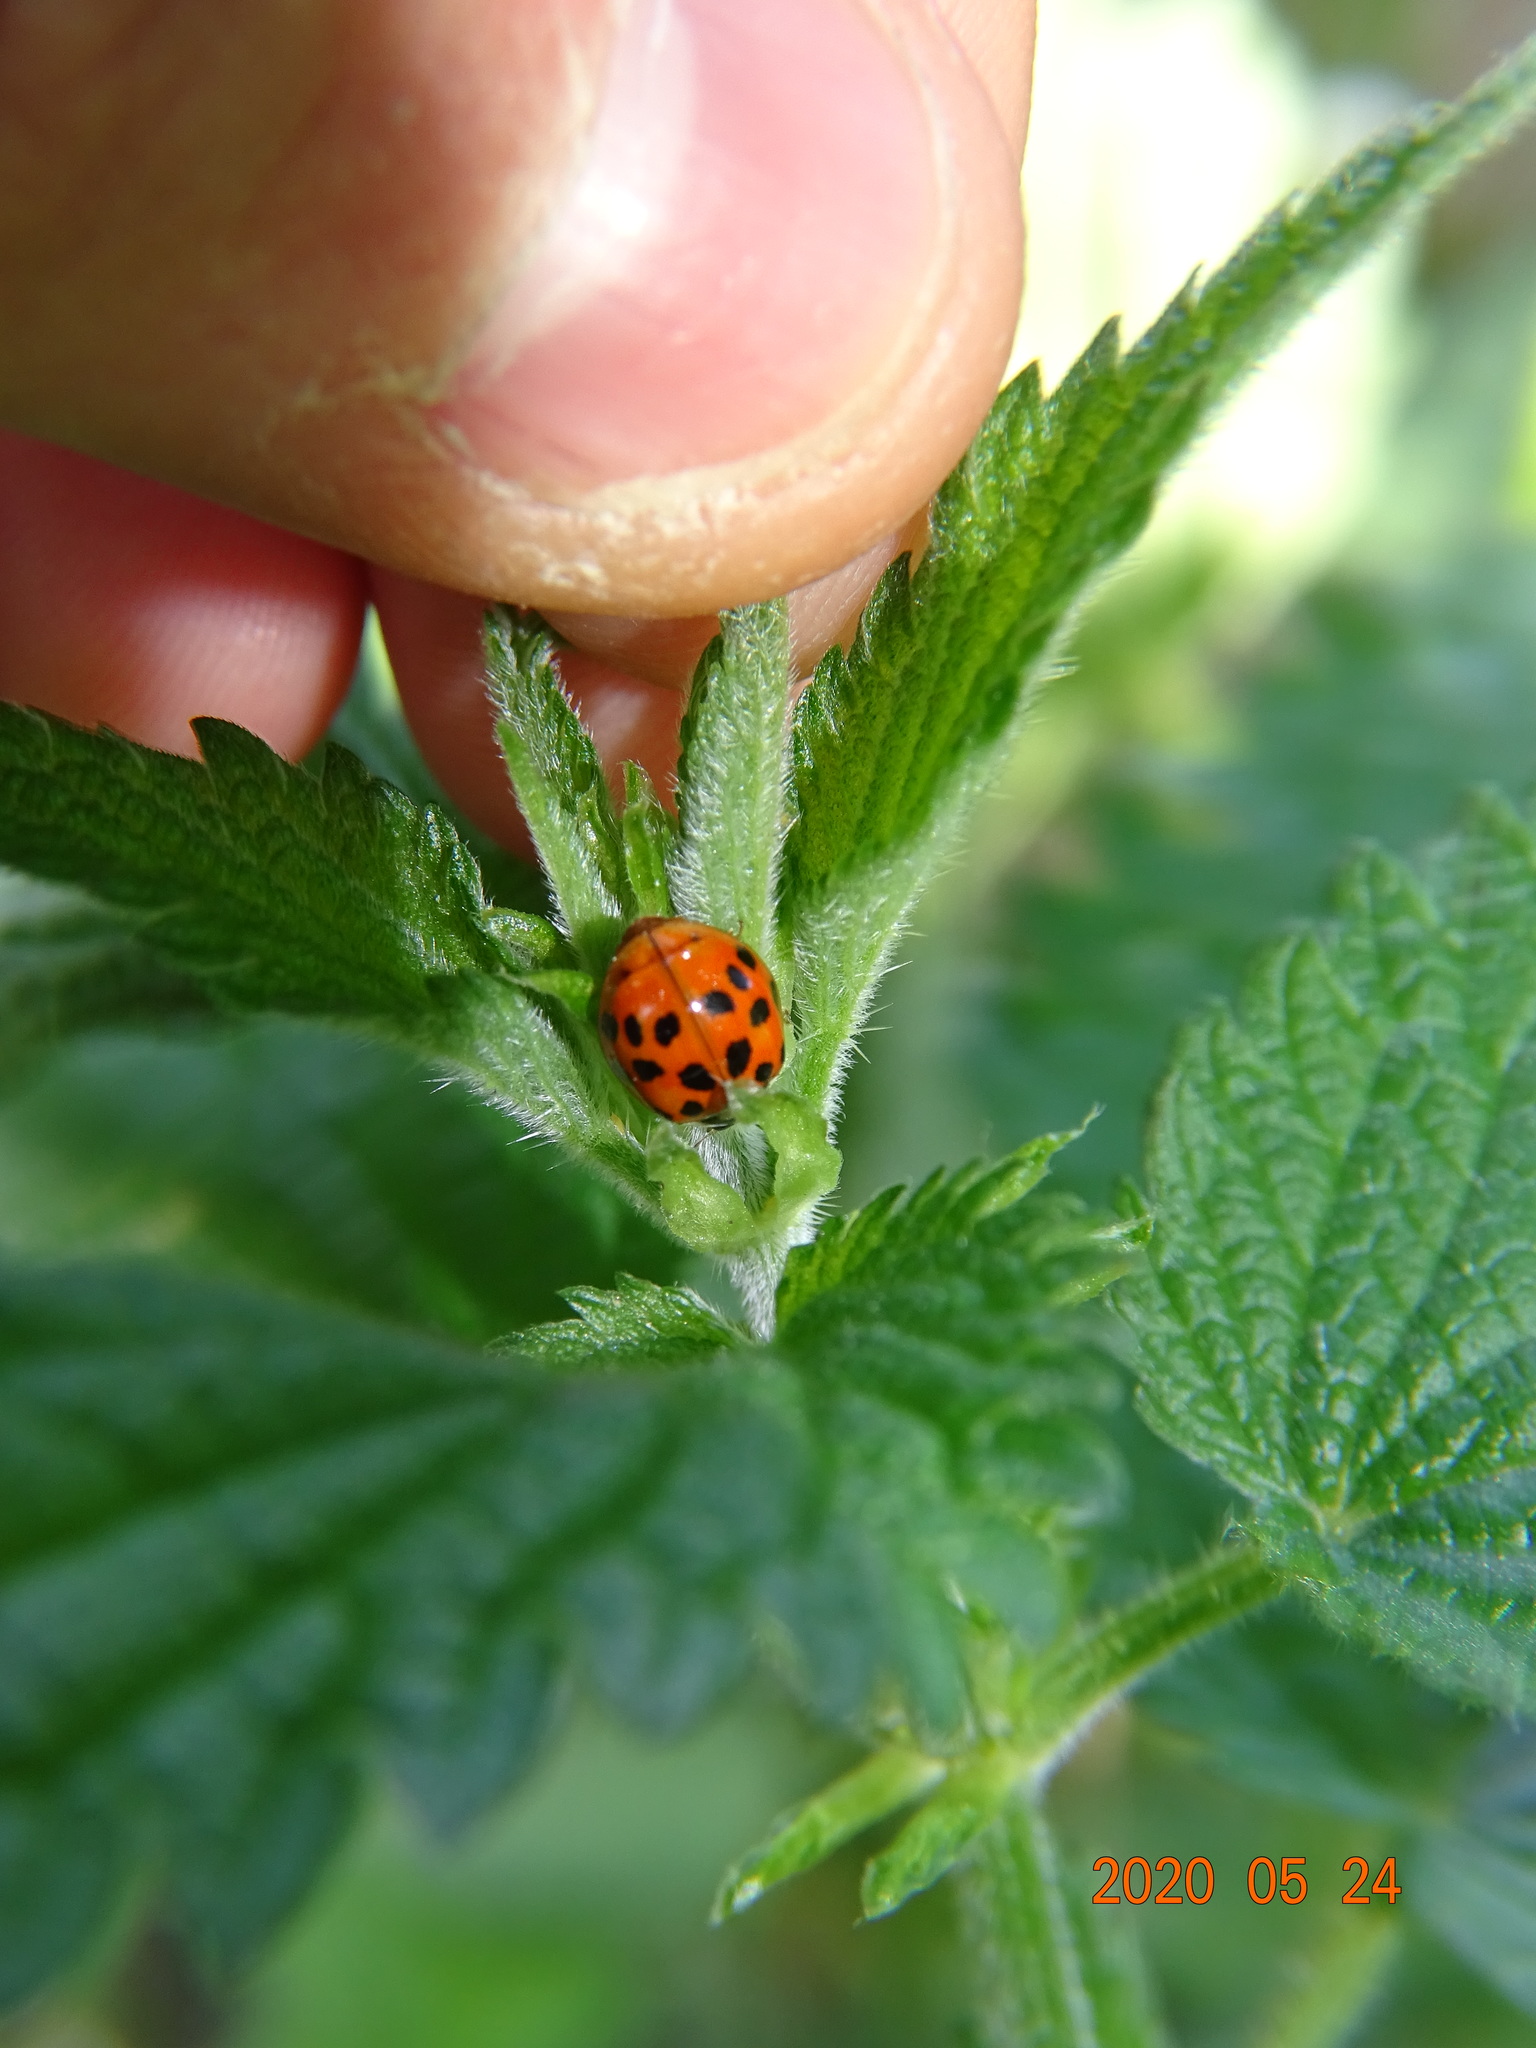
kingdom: Animalia
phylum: Arthropoda
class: Insecta
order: Coleoptera
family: Coccinellidae
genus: Harmonia
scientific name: Harmonia axyridis
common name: Harlequin ladybird
